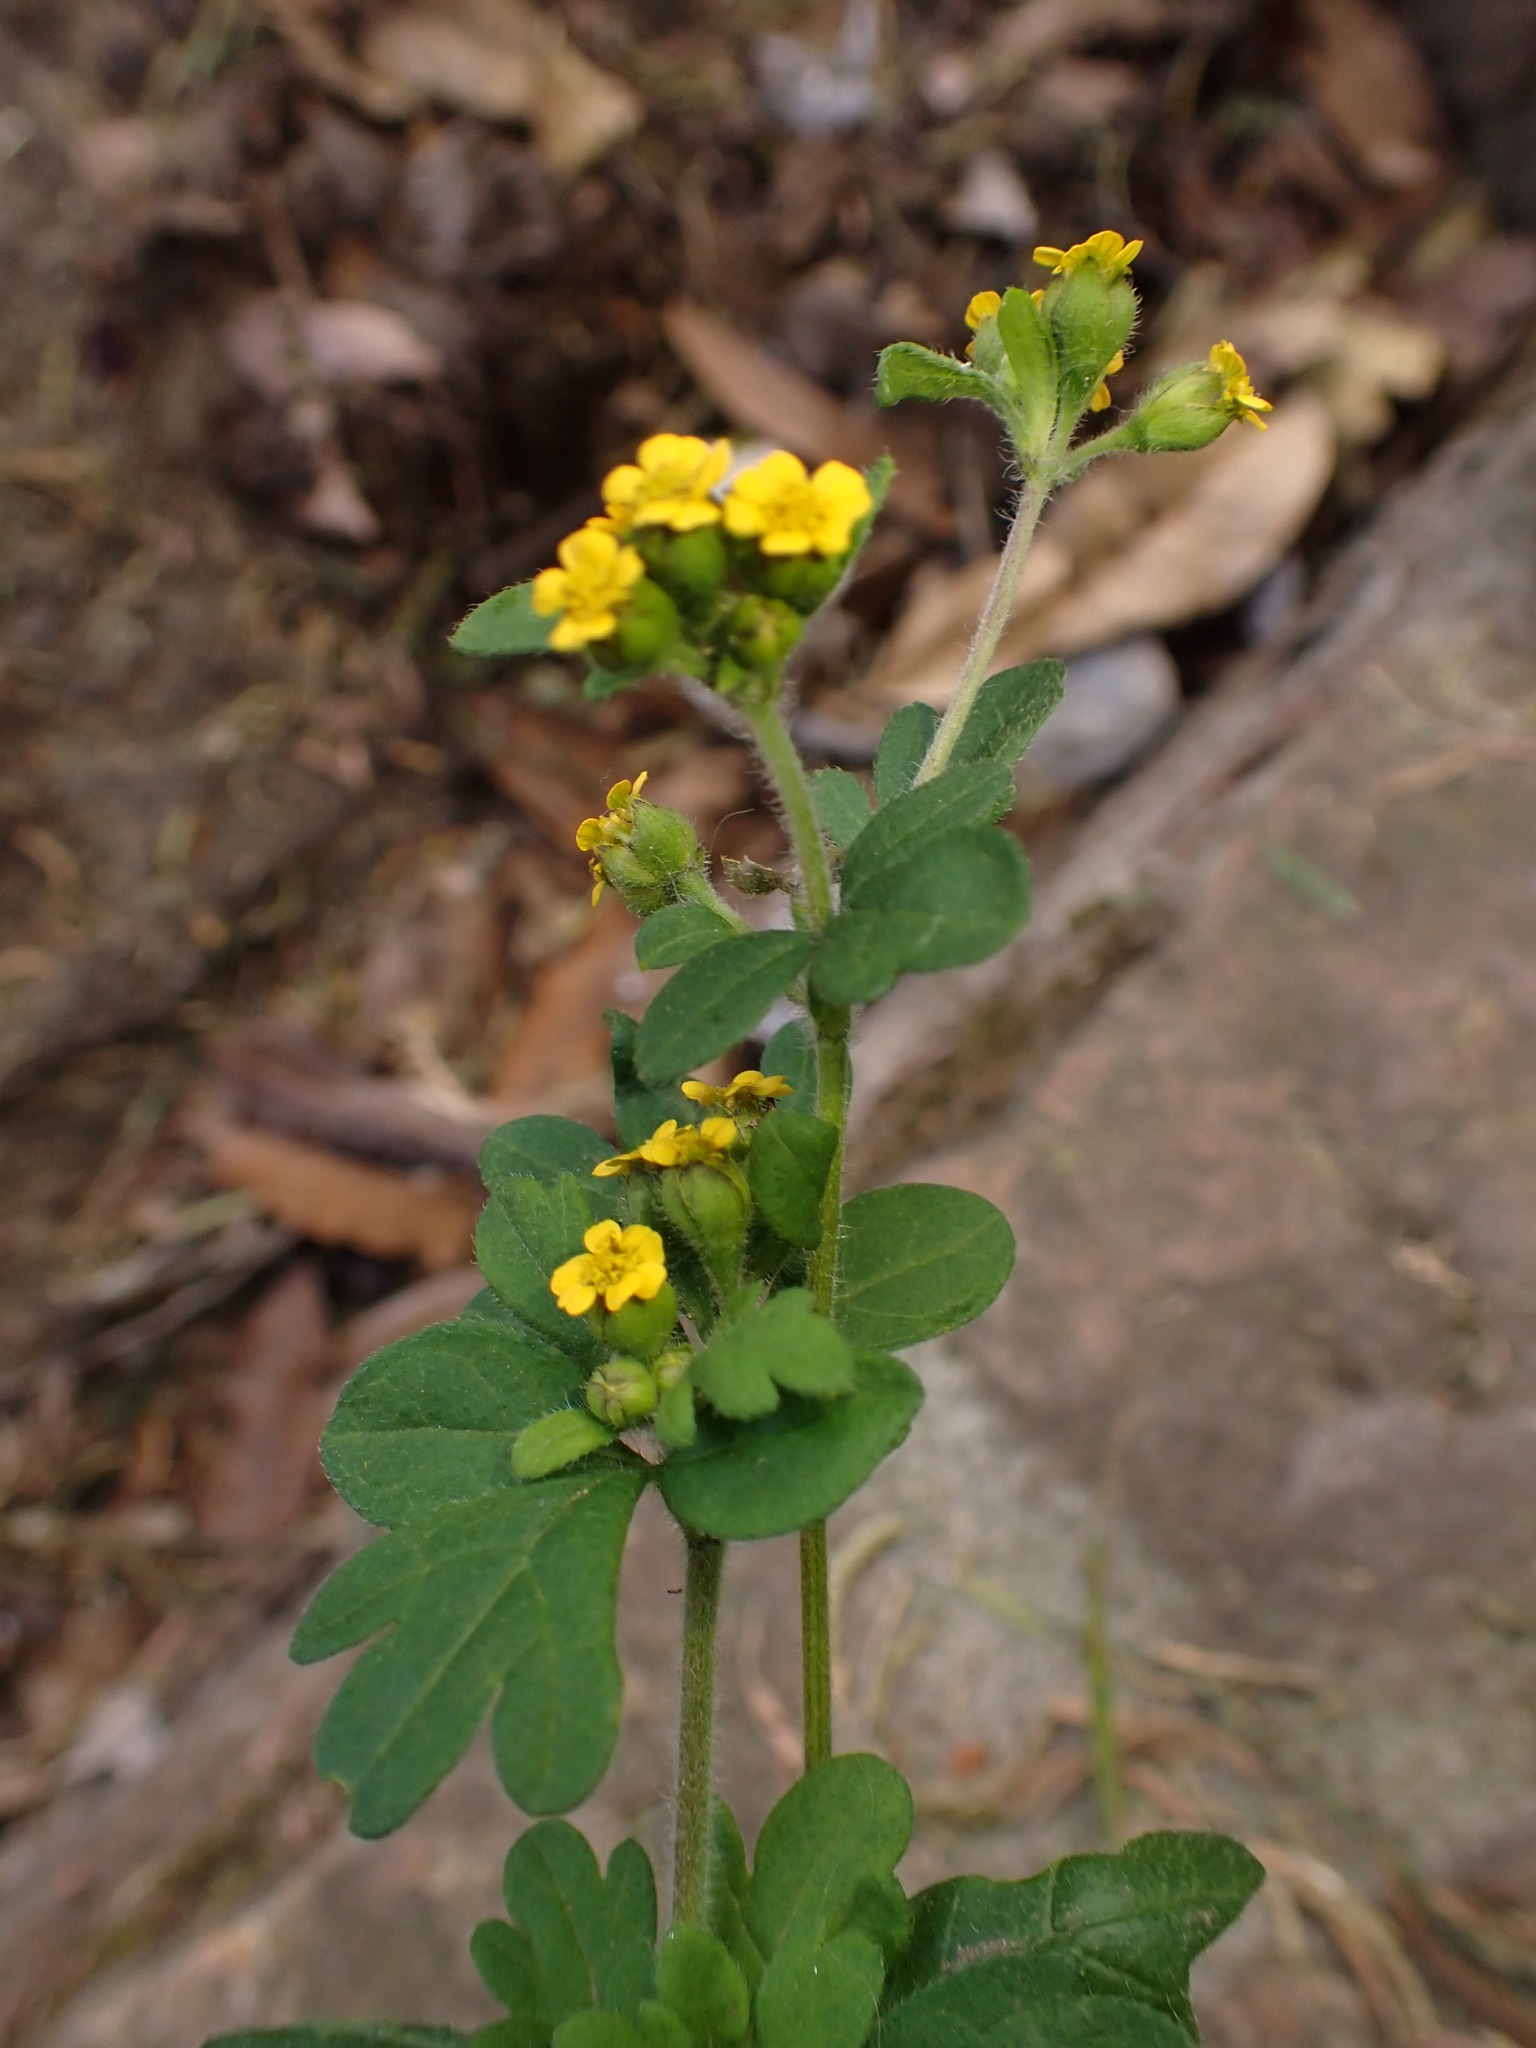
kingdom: Plantae
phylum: Tracheophyta
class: Magnoliopsida
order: Asterales
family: Asteraceae
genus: Villanova
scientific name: Villanova oppositifolia
